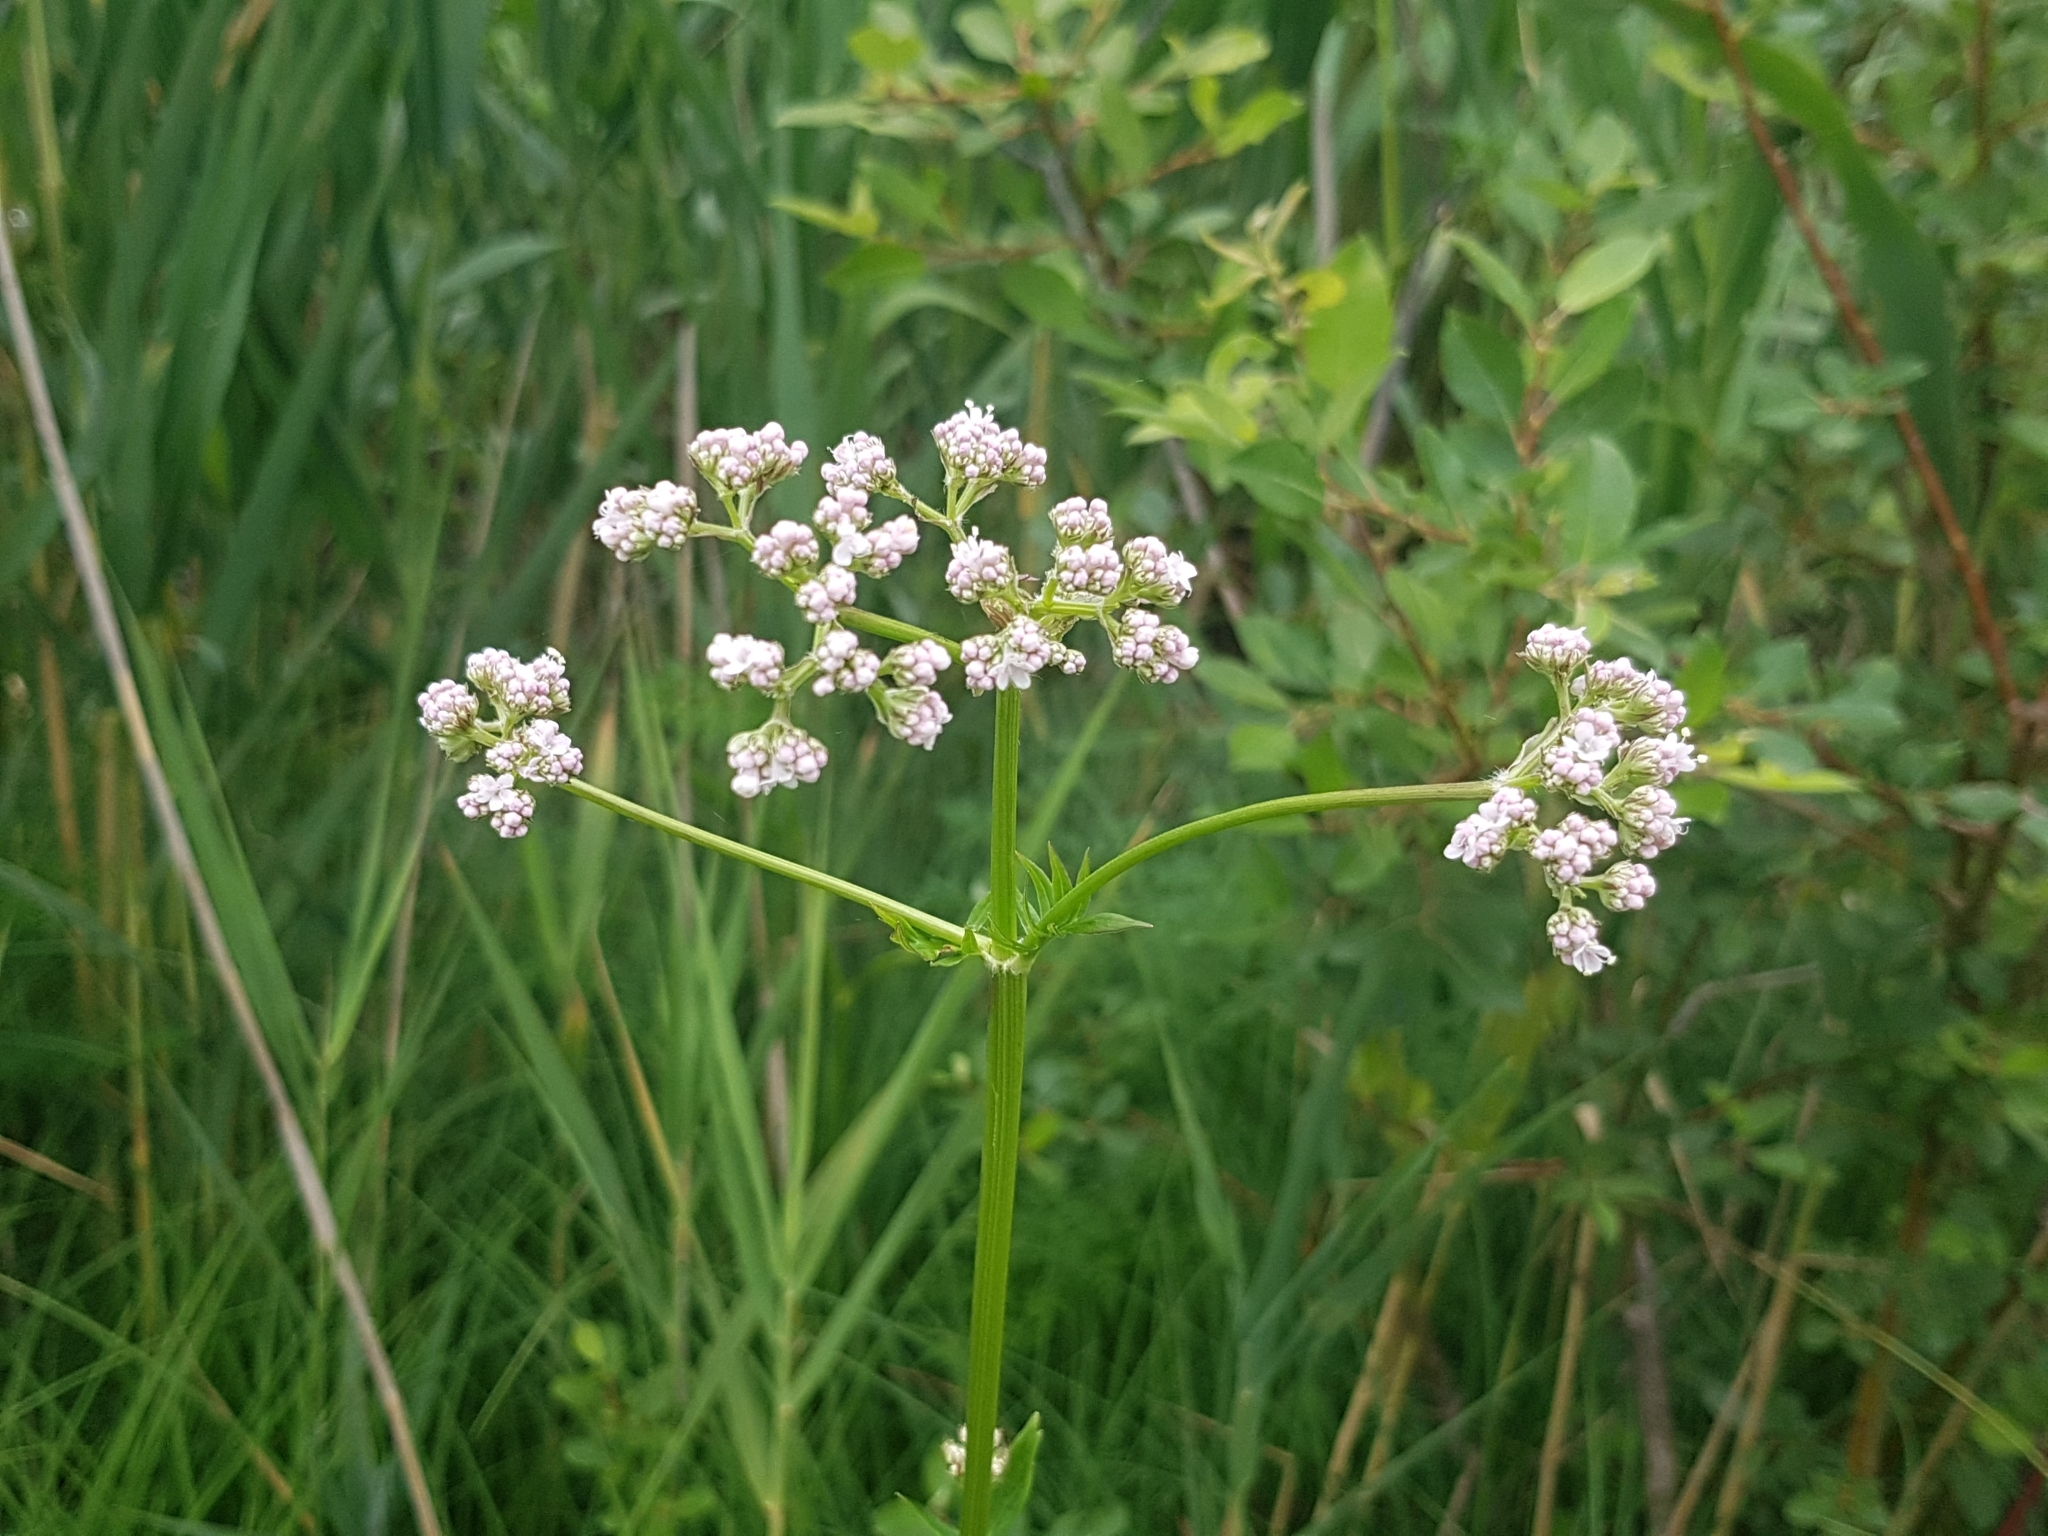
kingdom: Plantae
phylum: Tracheophyta
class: Magnoliopsida
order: Dipsacales
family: Caprifoliaceae
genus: Valeriana
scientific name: Valeriana officinalis
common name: Common valerian
